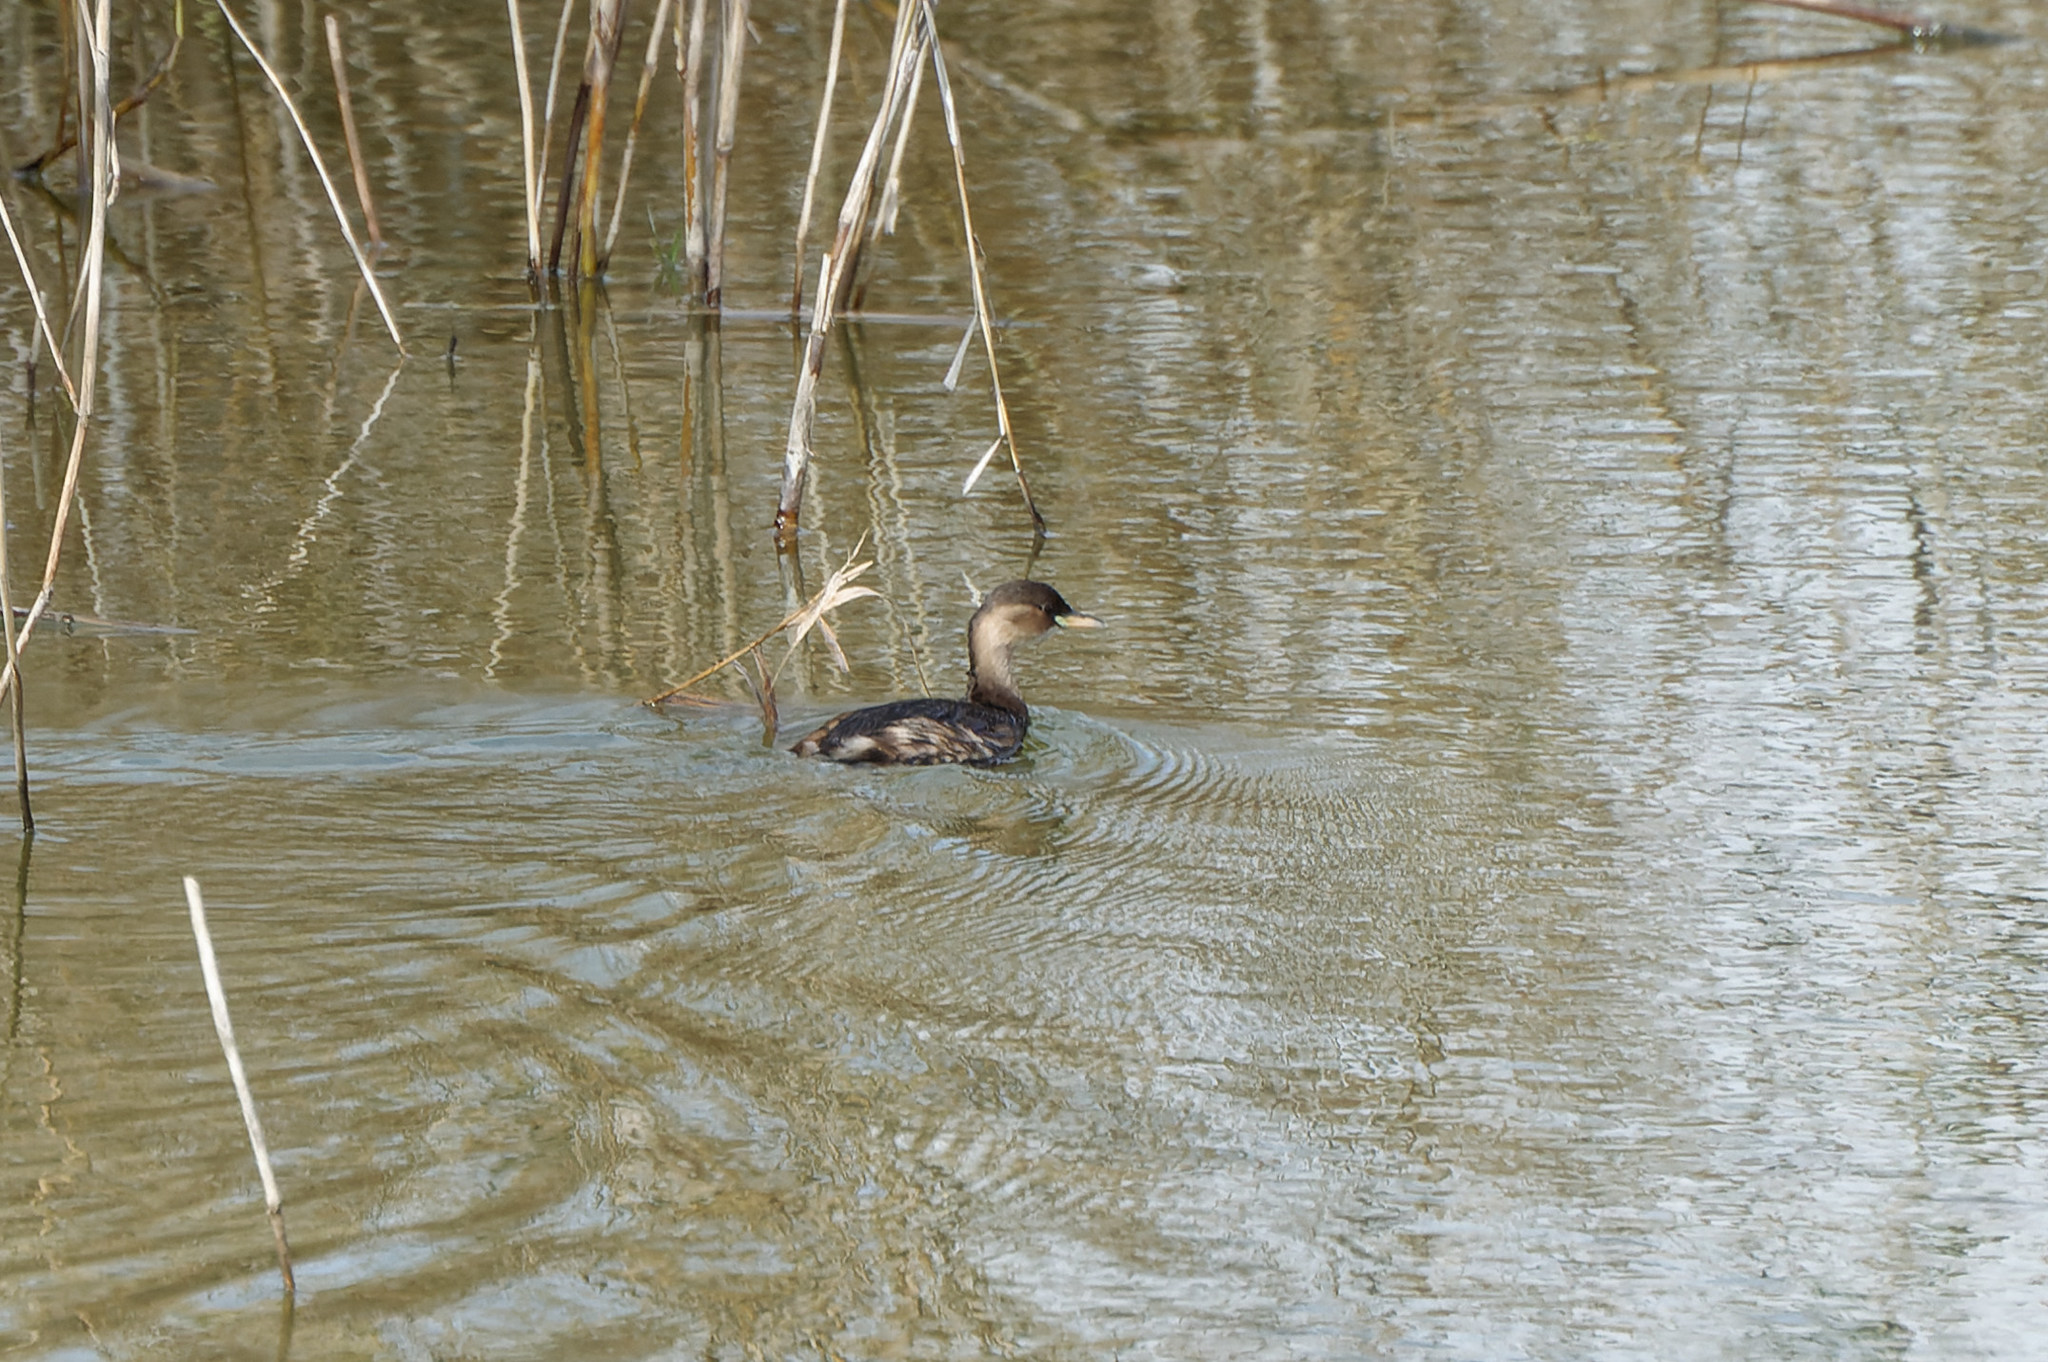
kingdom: Animalia
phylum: Chordata
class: Aves
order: Podicipediformes
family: Podicipedidae
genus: Tachybaptus
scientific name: Tachybaptus ruficollis
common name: Little grebe
